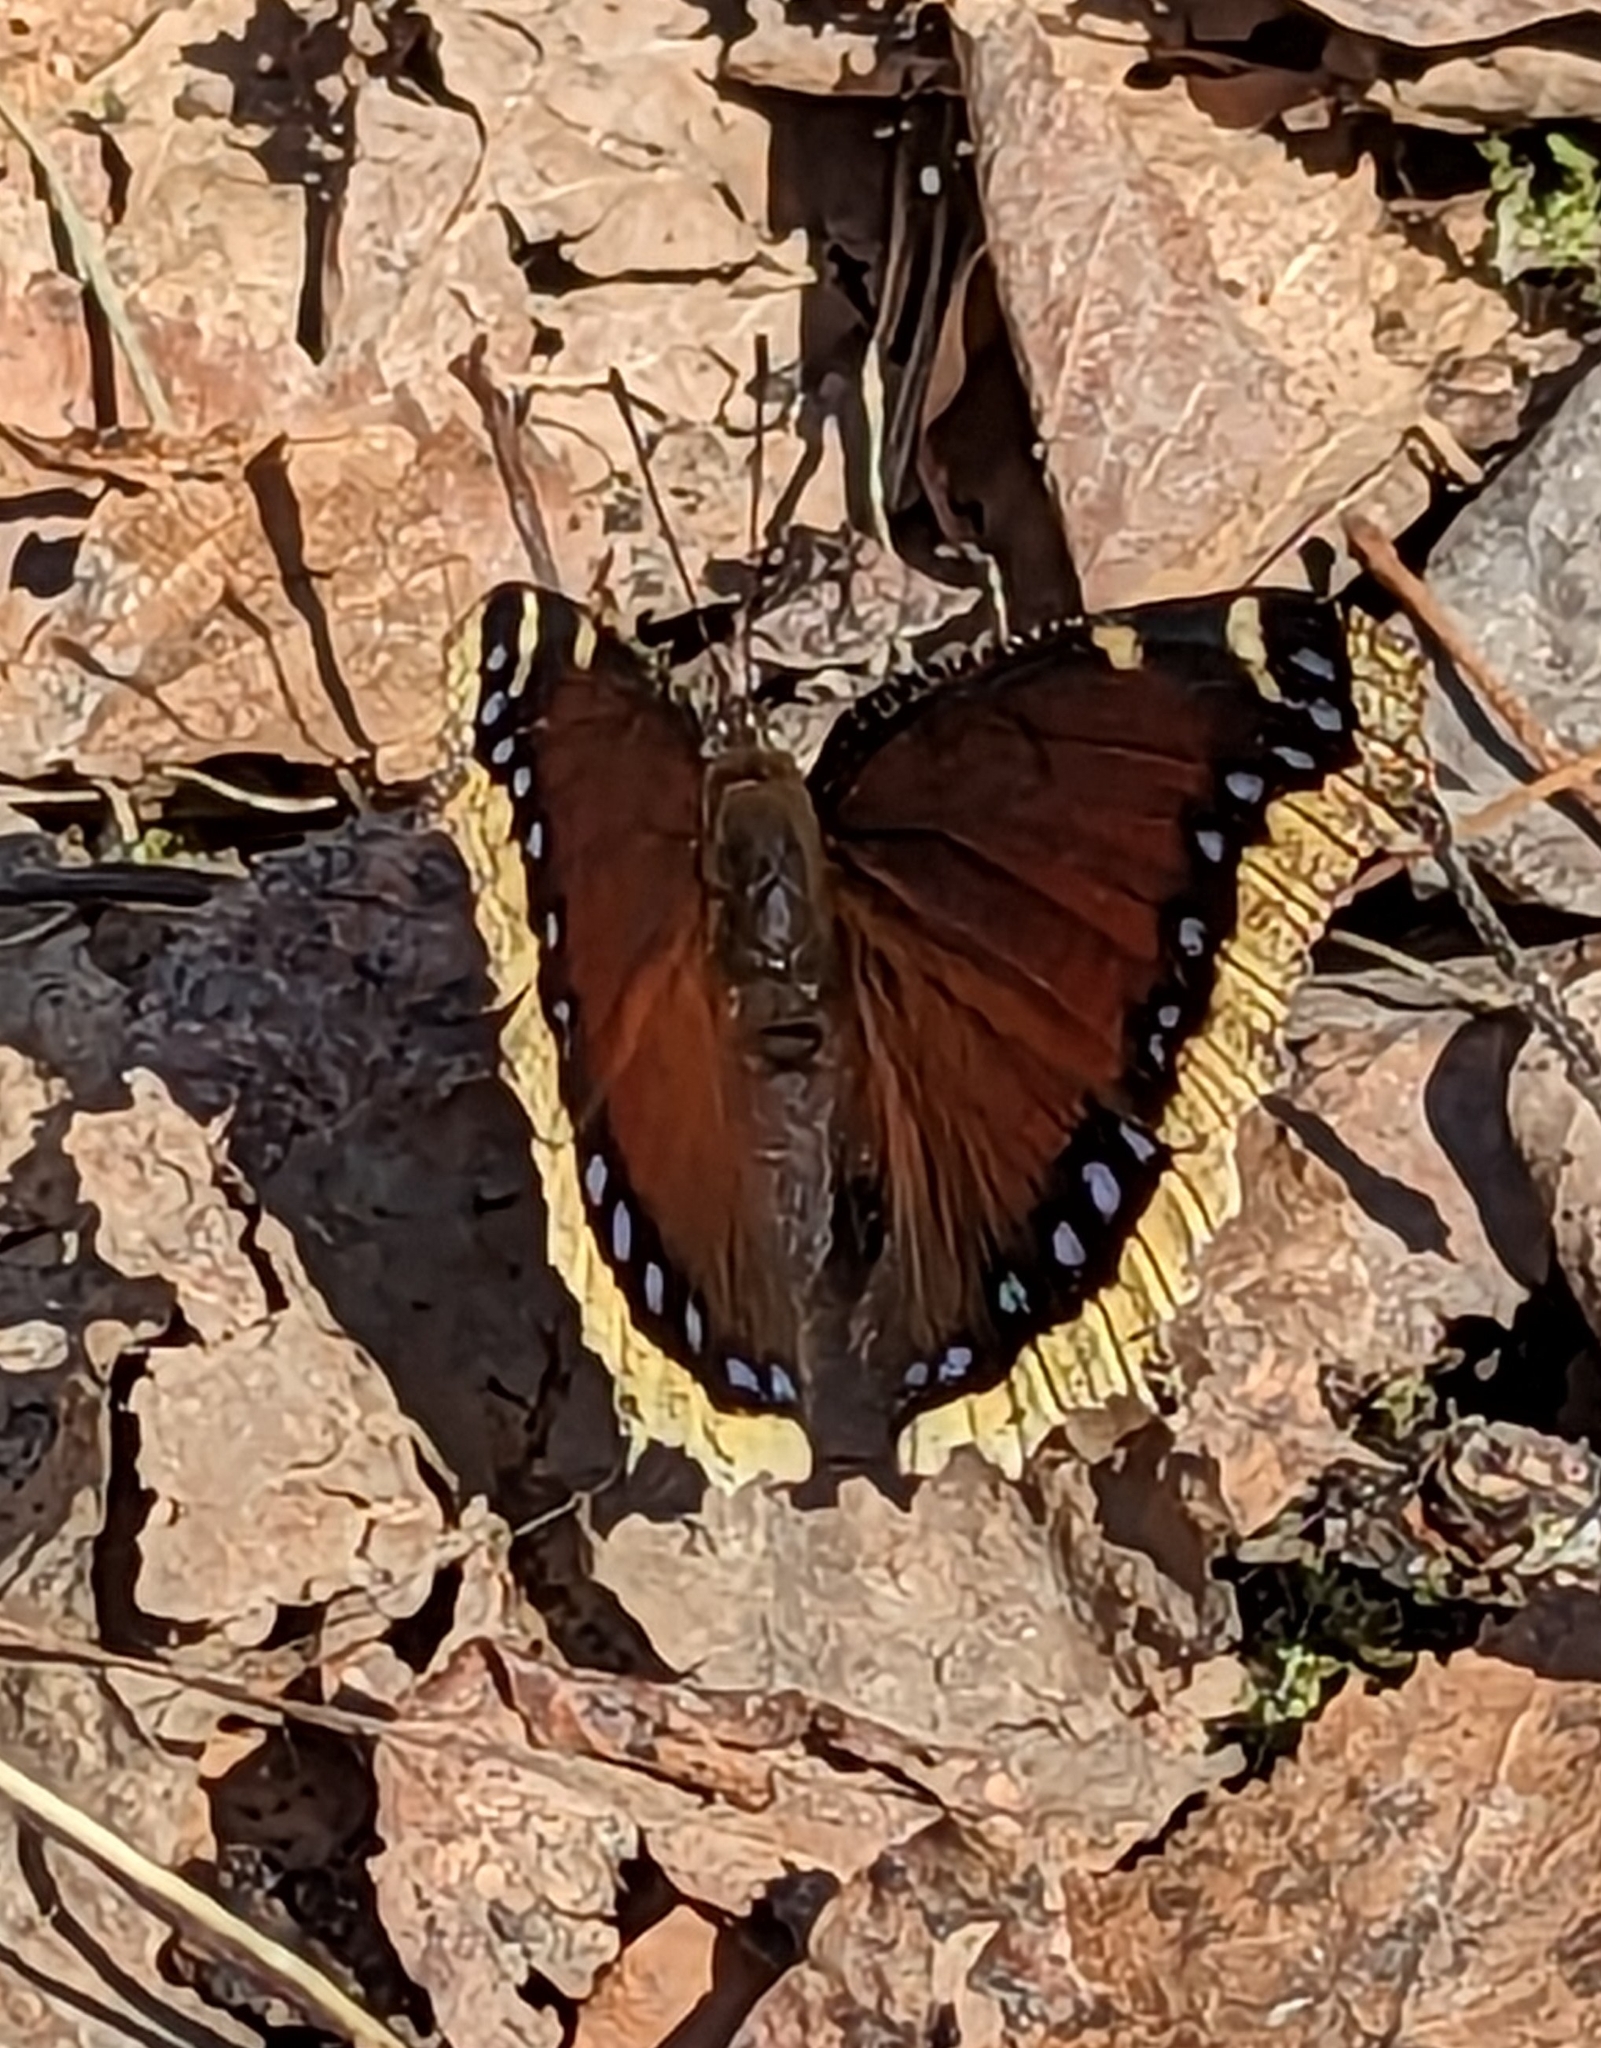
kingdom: Animalia
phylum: Arthropoda
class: Insecta
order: Lepidoptera
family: Nymphalidae
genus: Nymphalis
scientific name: Nymphalis antiopa
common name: Camberwell beauty
